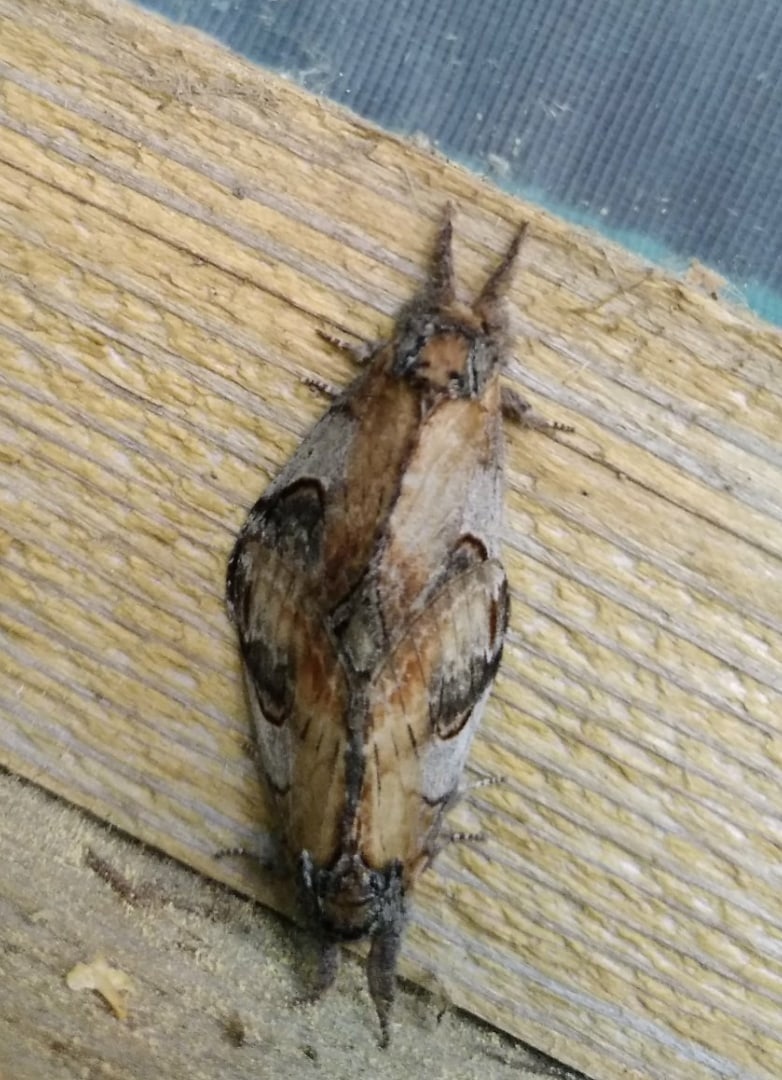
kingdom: Animalia
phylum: Arthropoda
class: Insecta
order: Lepidoptera
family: Notodontidae
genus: Notodonta
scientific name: Notodonta ziczac
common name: Pebble prominent
